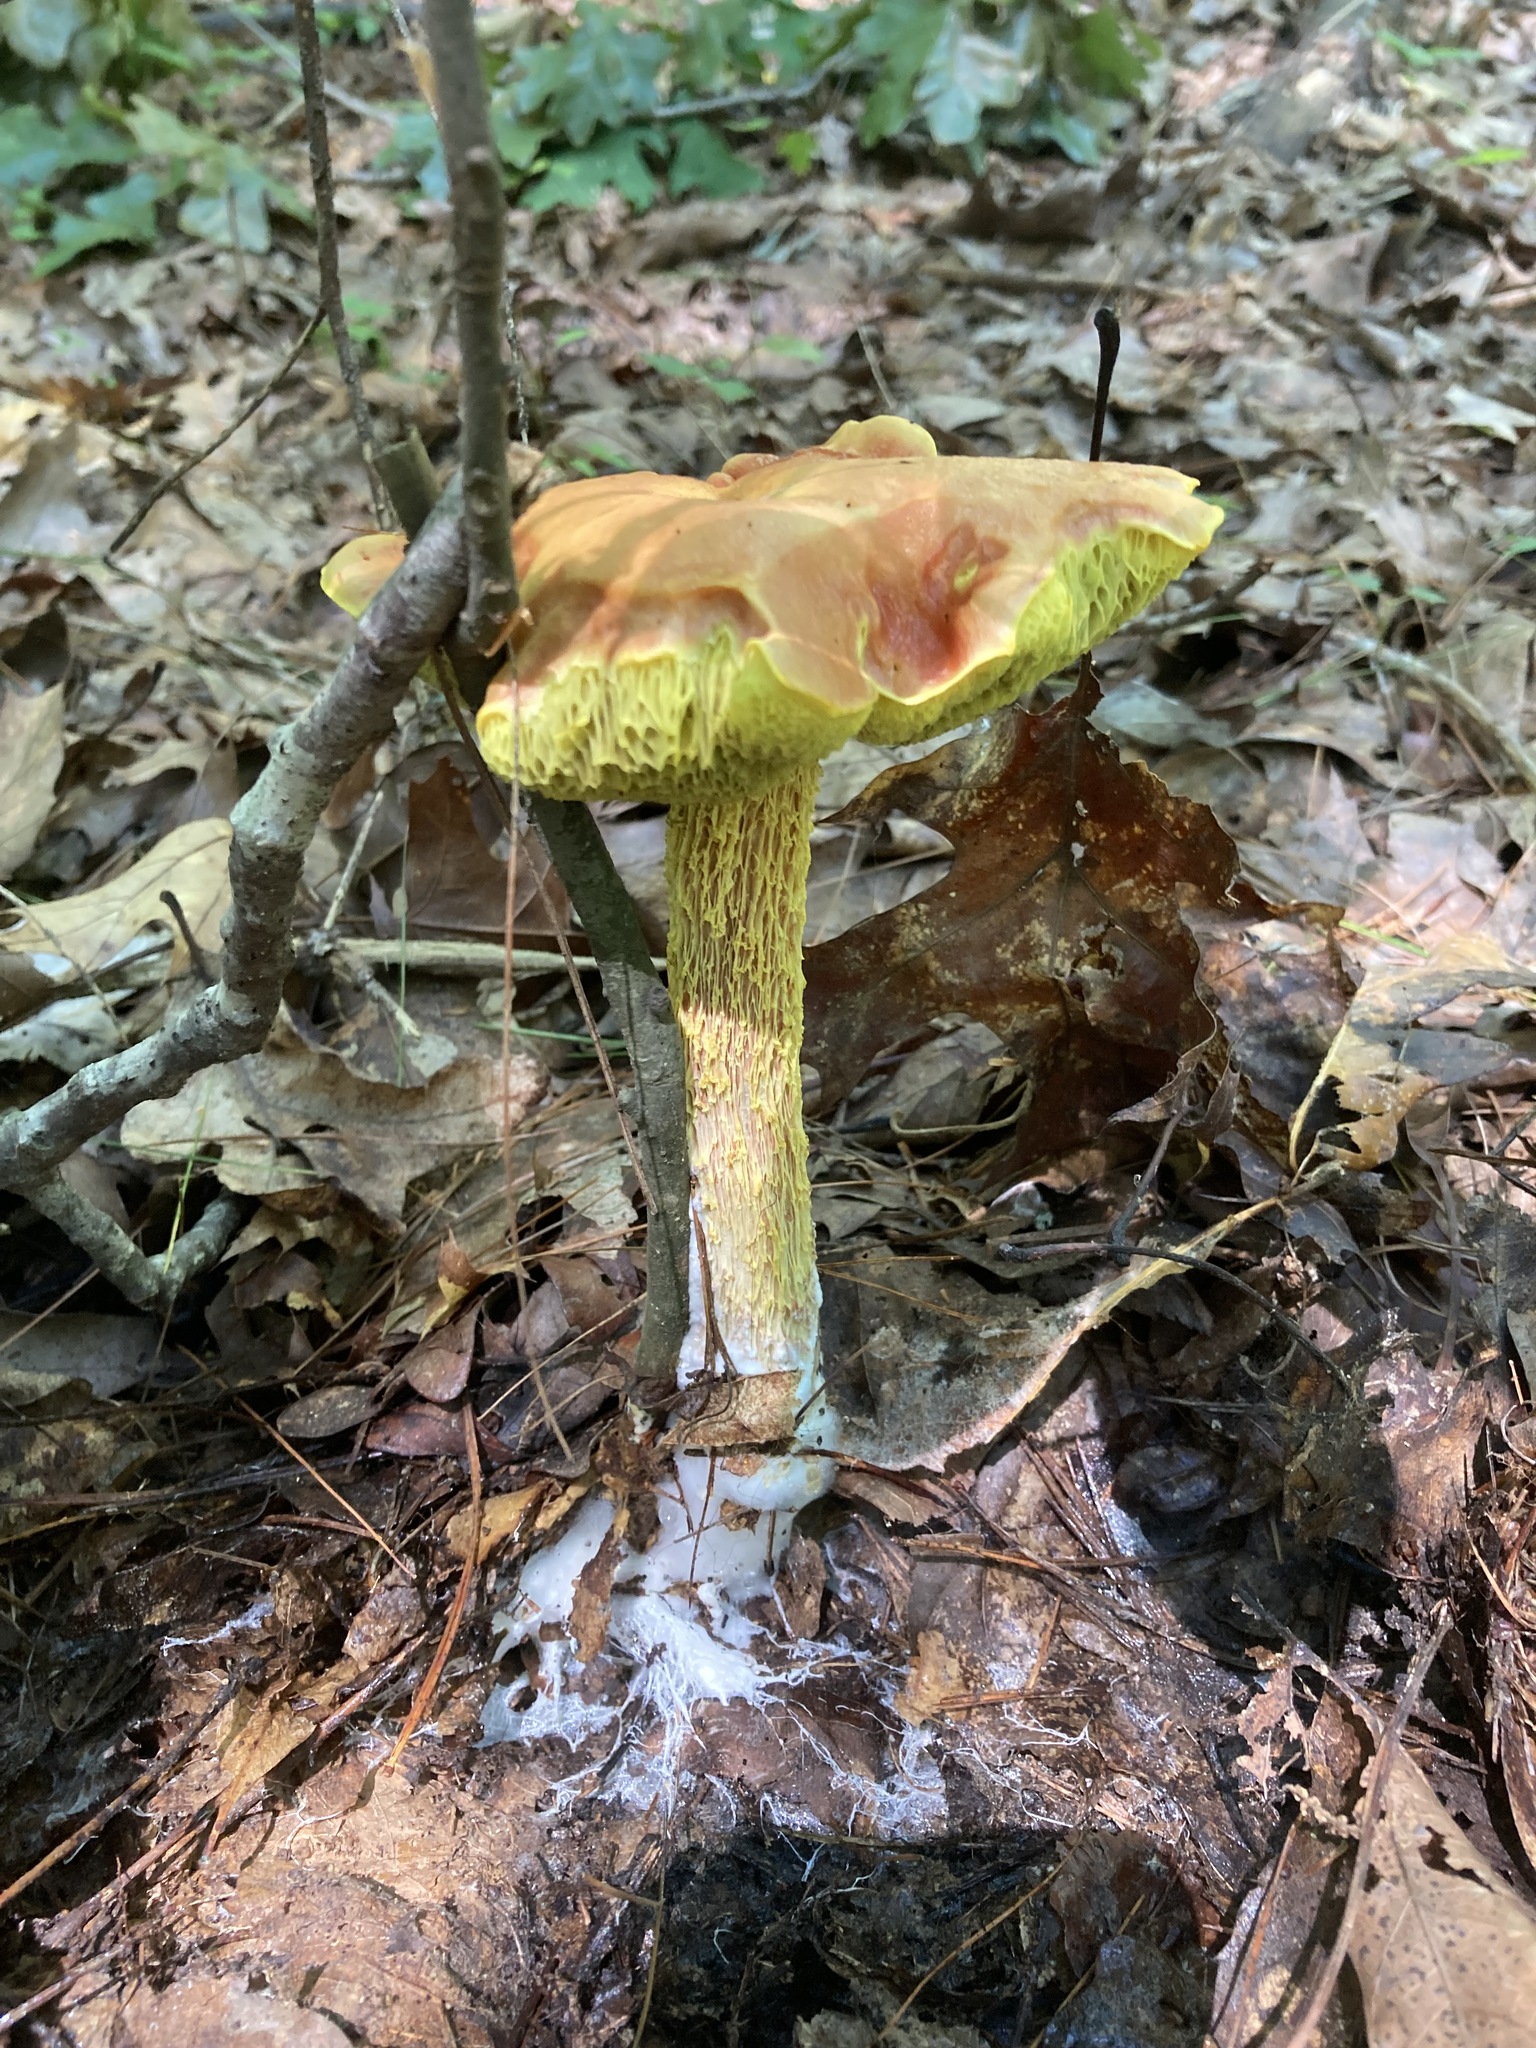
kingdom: Fungi
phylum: Basidiomycota
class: Agaricomycetes
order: Boletales
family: Boletaceae
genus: Aureoboletus
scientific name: Aureoboletus betula
